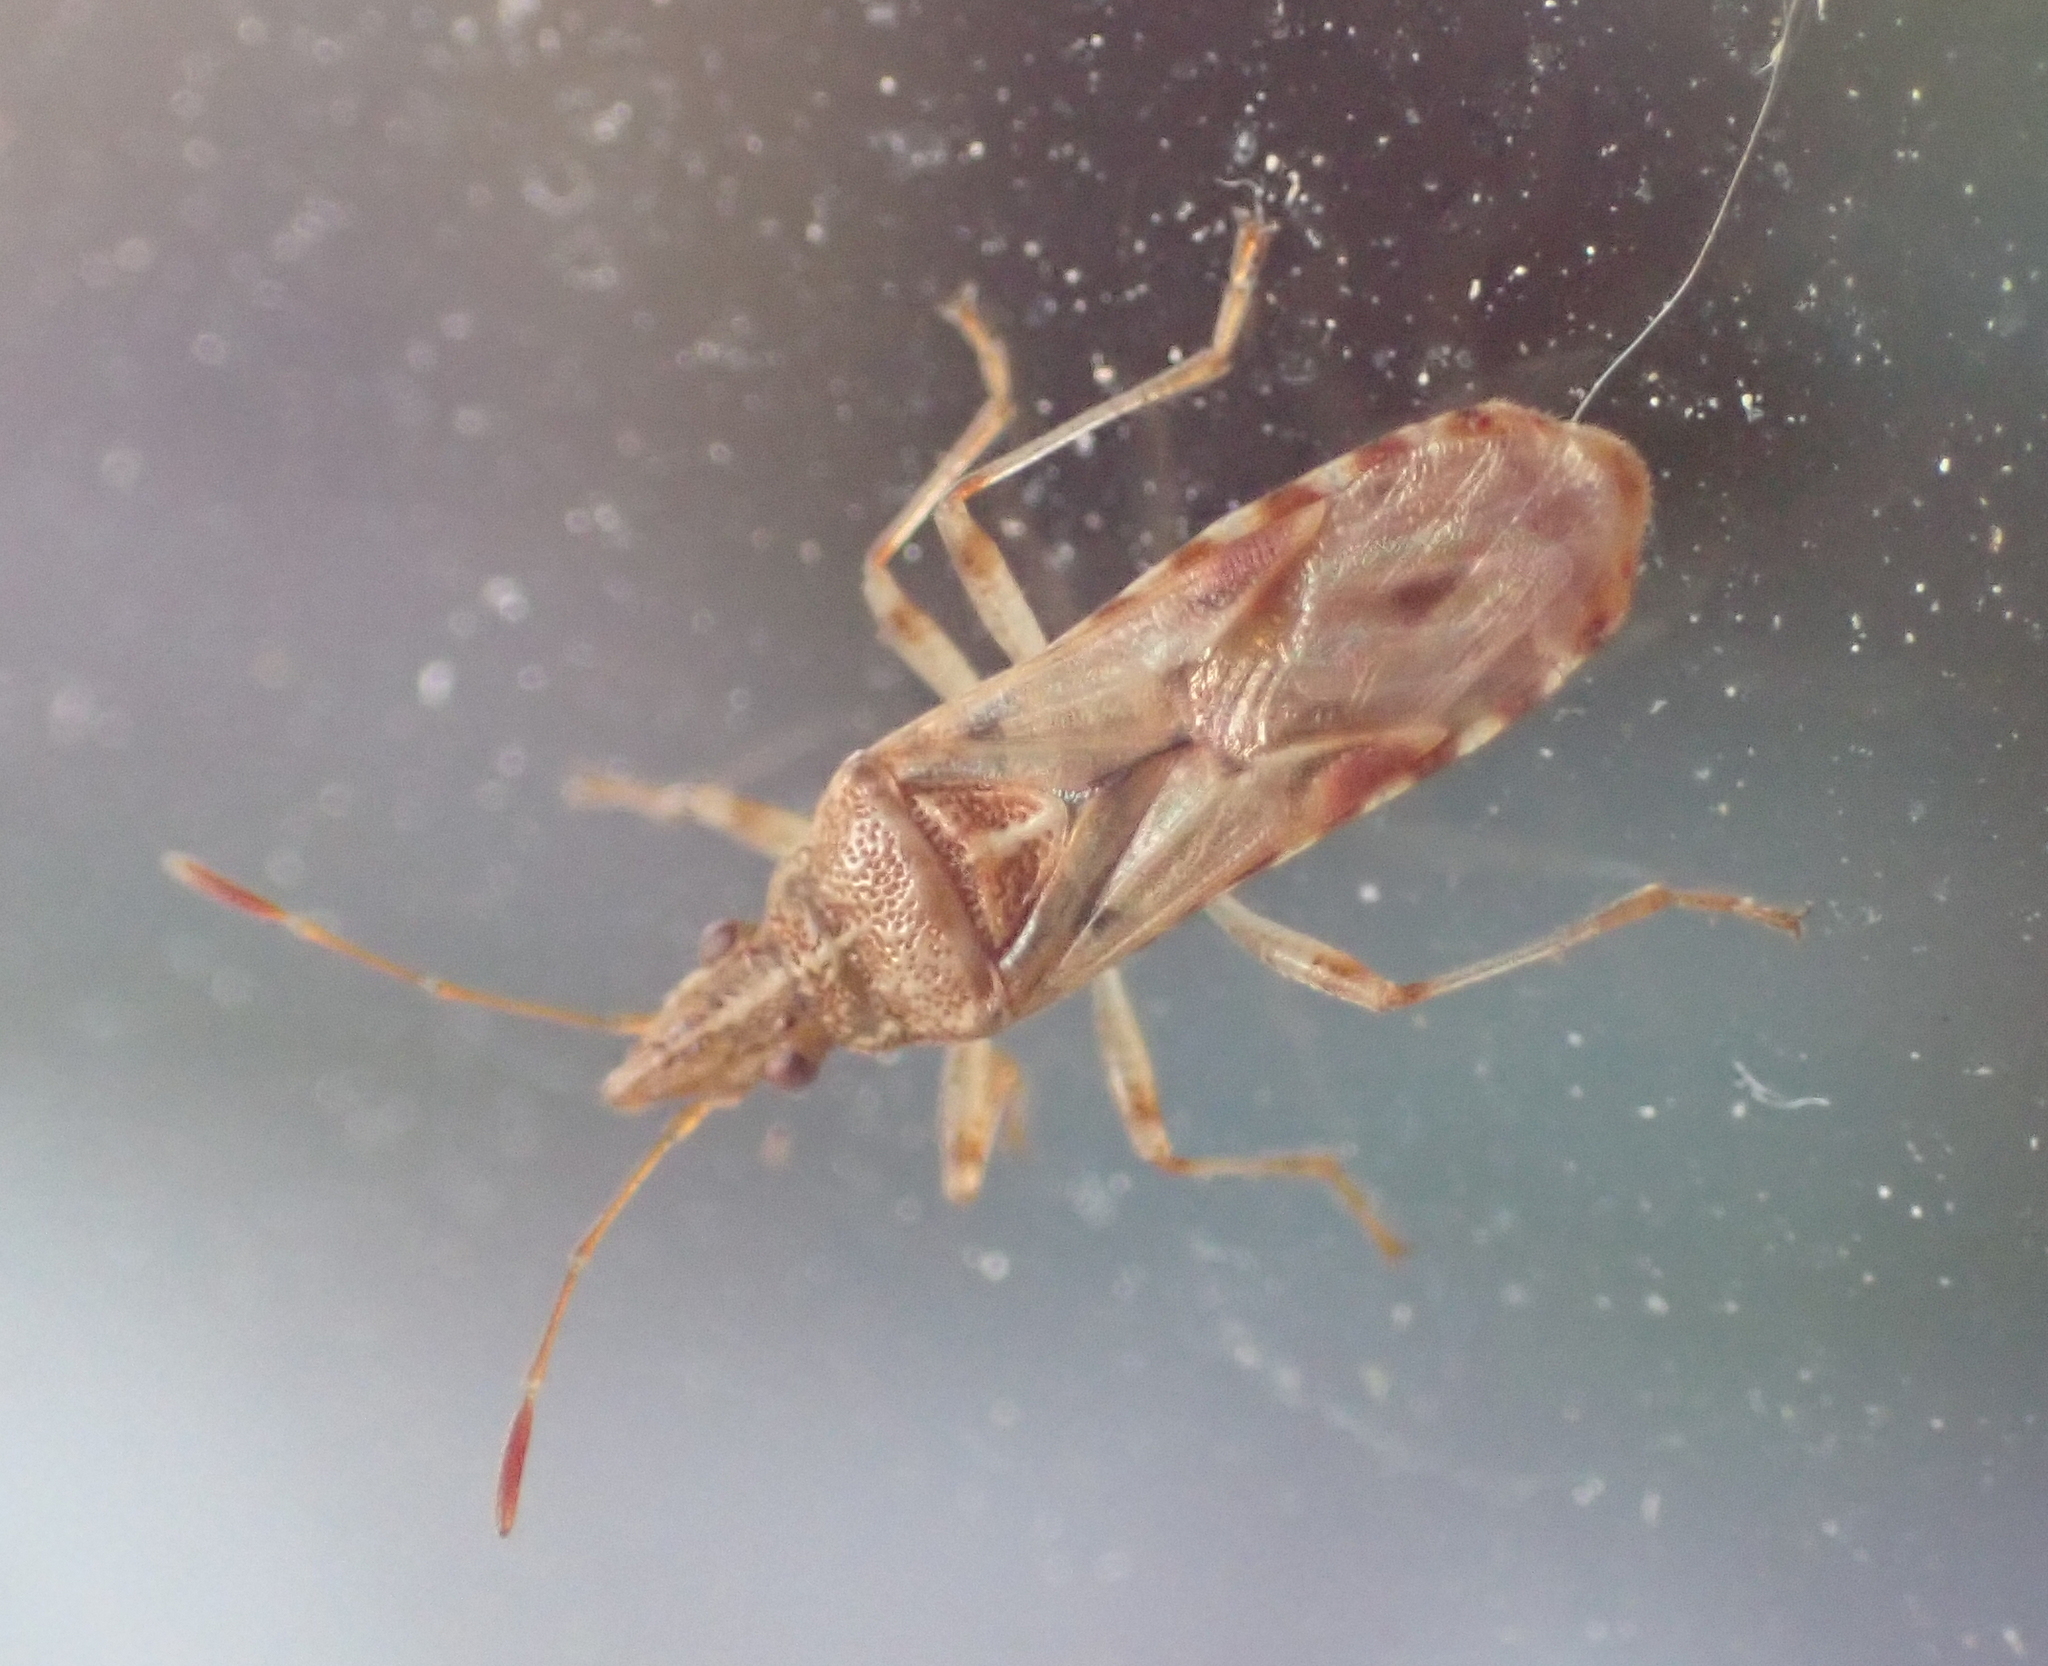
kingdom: Animalia
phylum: Arthropoda
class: Insecta
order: Hemiptera
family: Lygaeidae
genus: Belonochilus
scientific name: Belonochilus numenius
